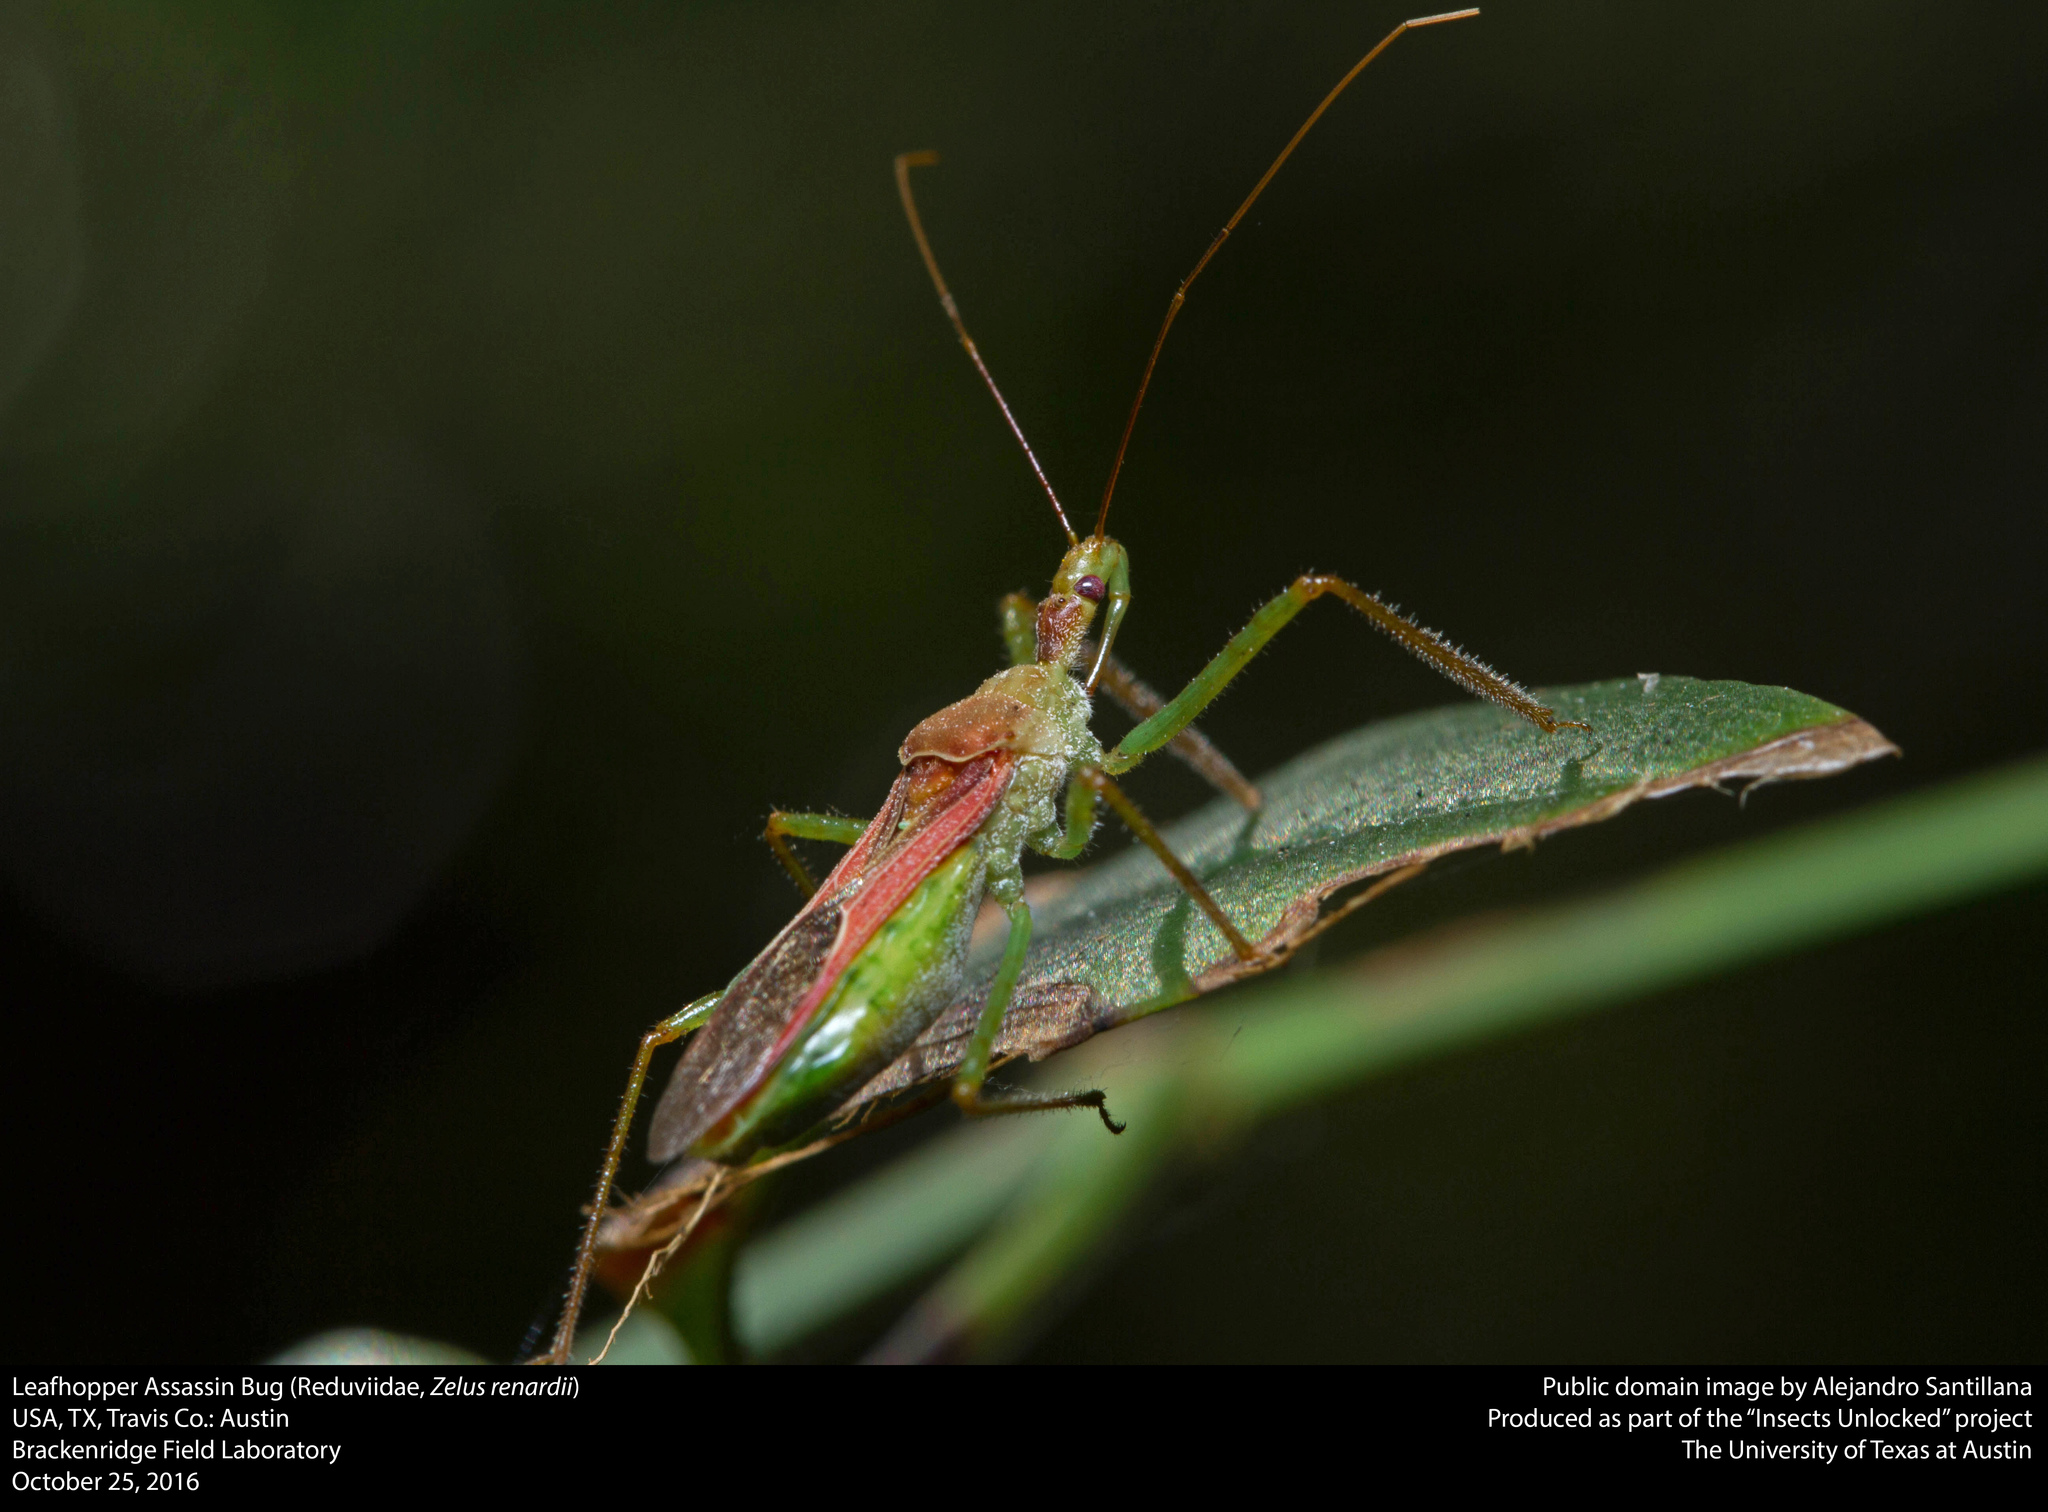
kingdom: Animalia
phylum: Arthropoda
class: Insecta
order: Hemiptera
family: Reduviidae
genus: Zelus
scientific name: Zelus renardii
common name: Assassin bug
